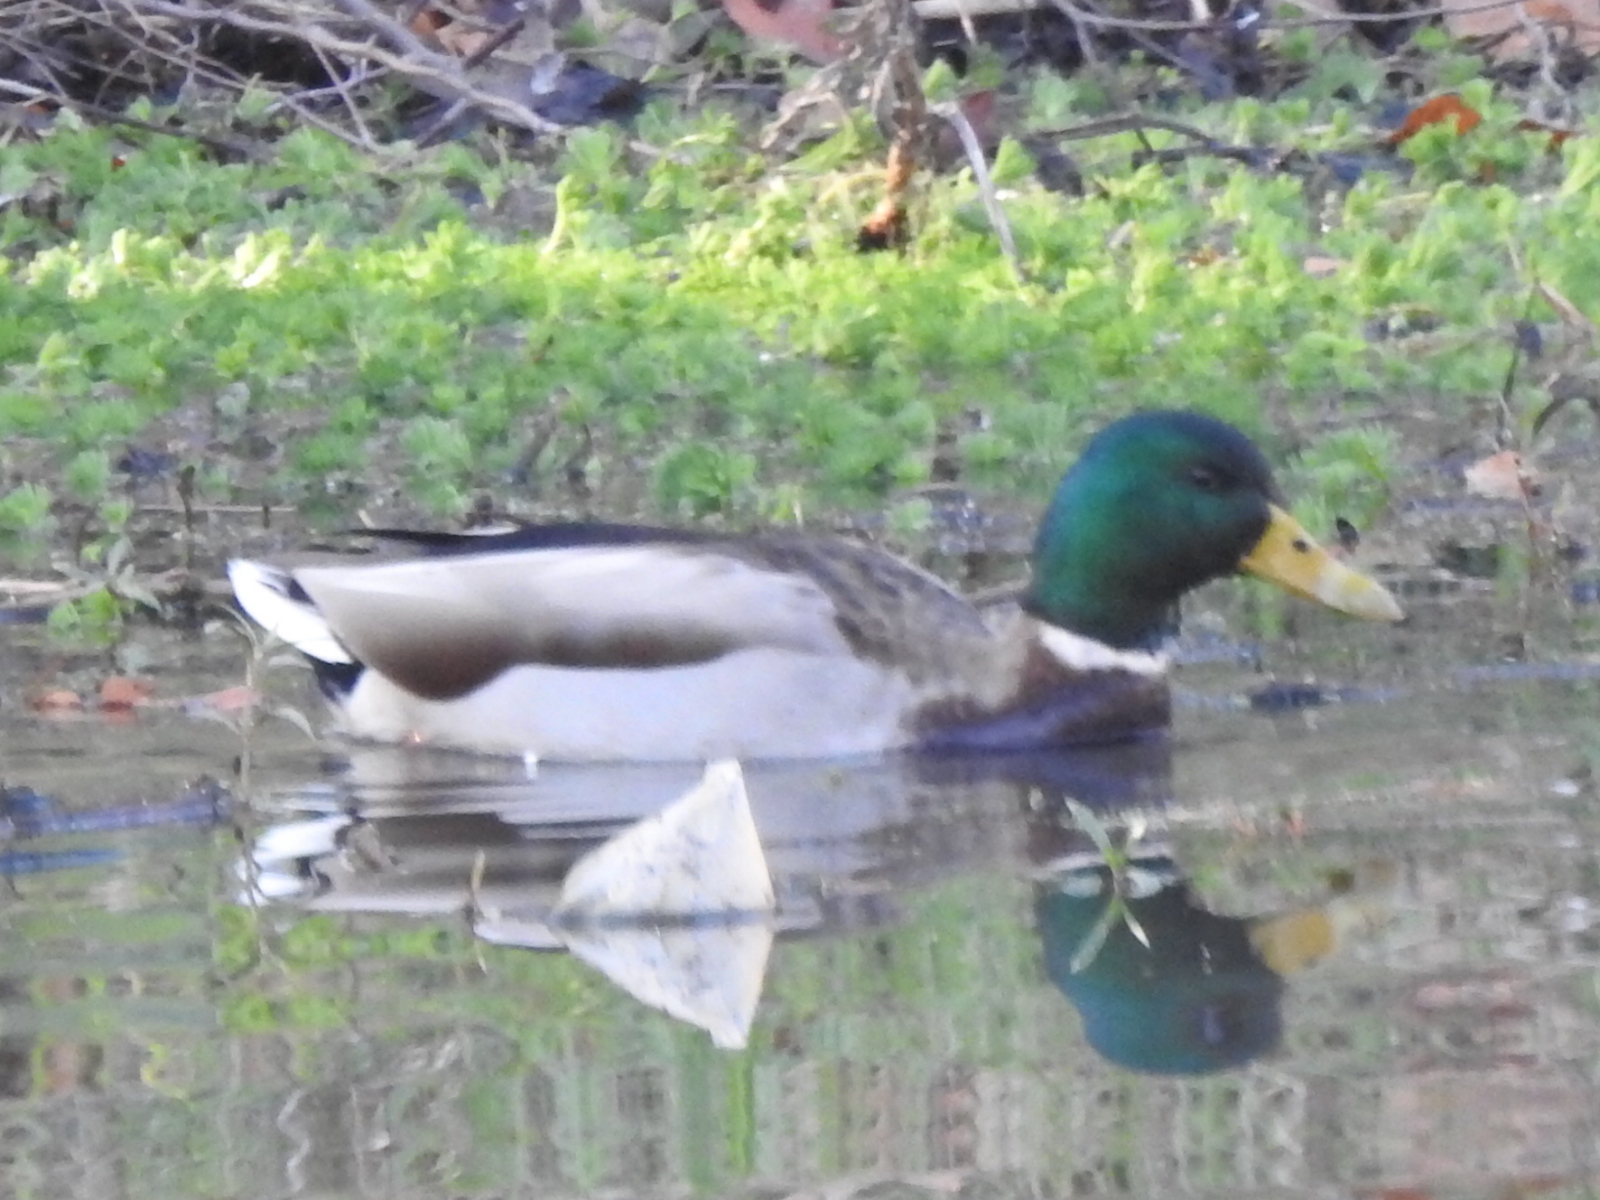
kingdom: Animalia
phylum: Chordata
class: Aves
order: Anseriformes
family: Anatidae
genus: Anas
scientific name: Anas platyrhynchos
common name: Mallard
